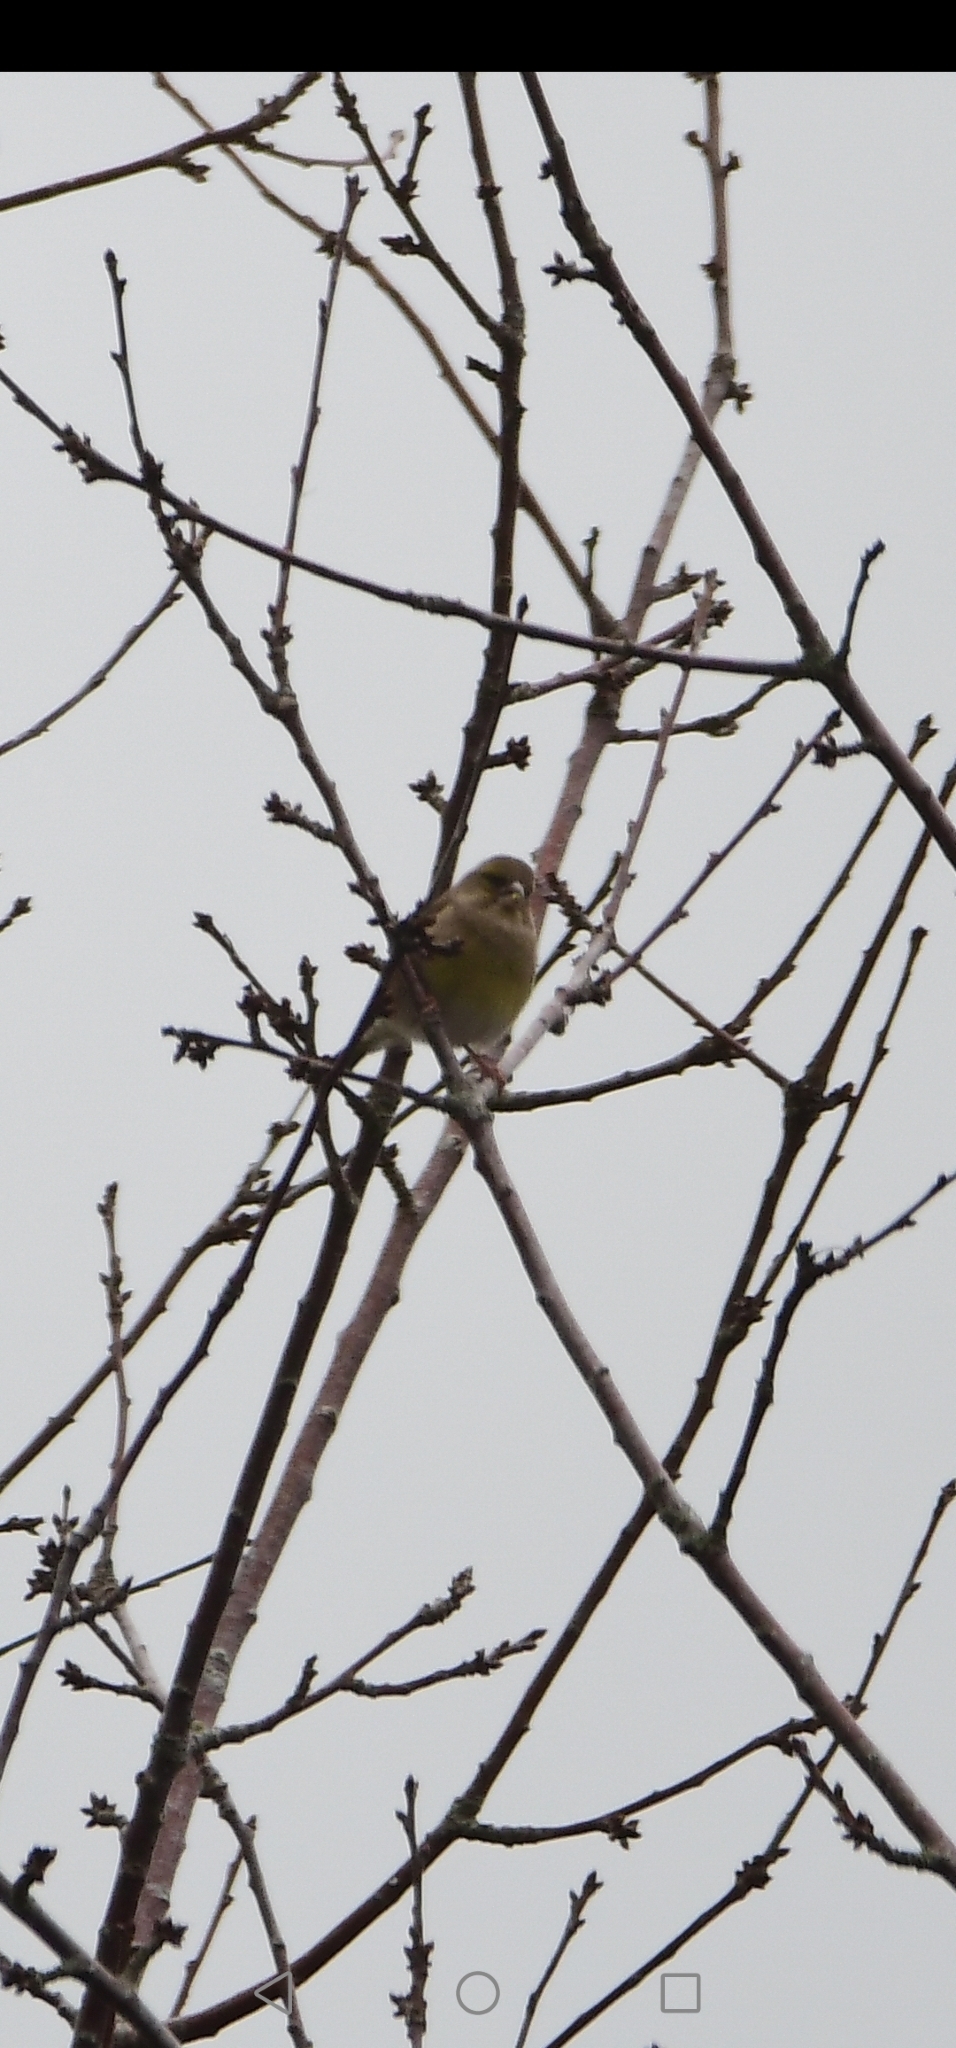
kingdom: Plantae
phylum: Tracheophyta
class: Liliopsida
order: Poales
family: Poaceae
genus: Chloris
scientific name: Chloris chloris
